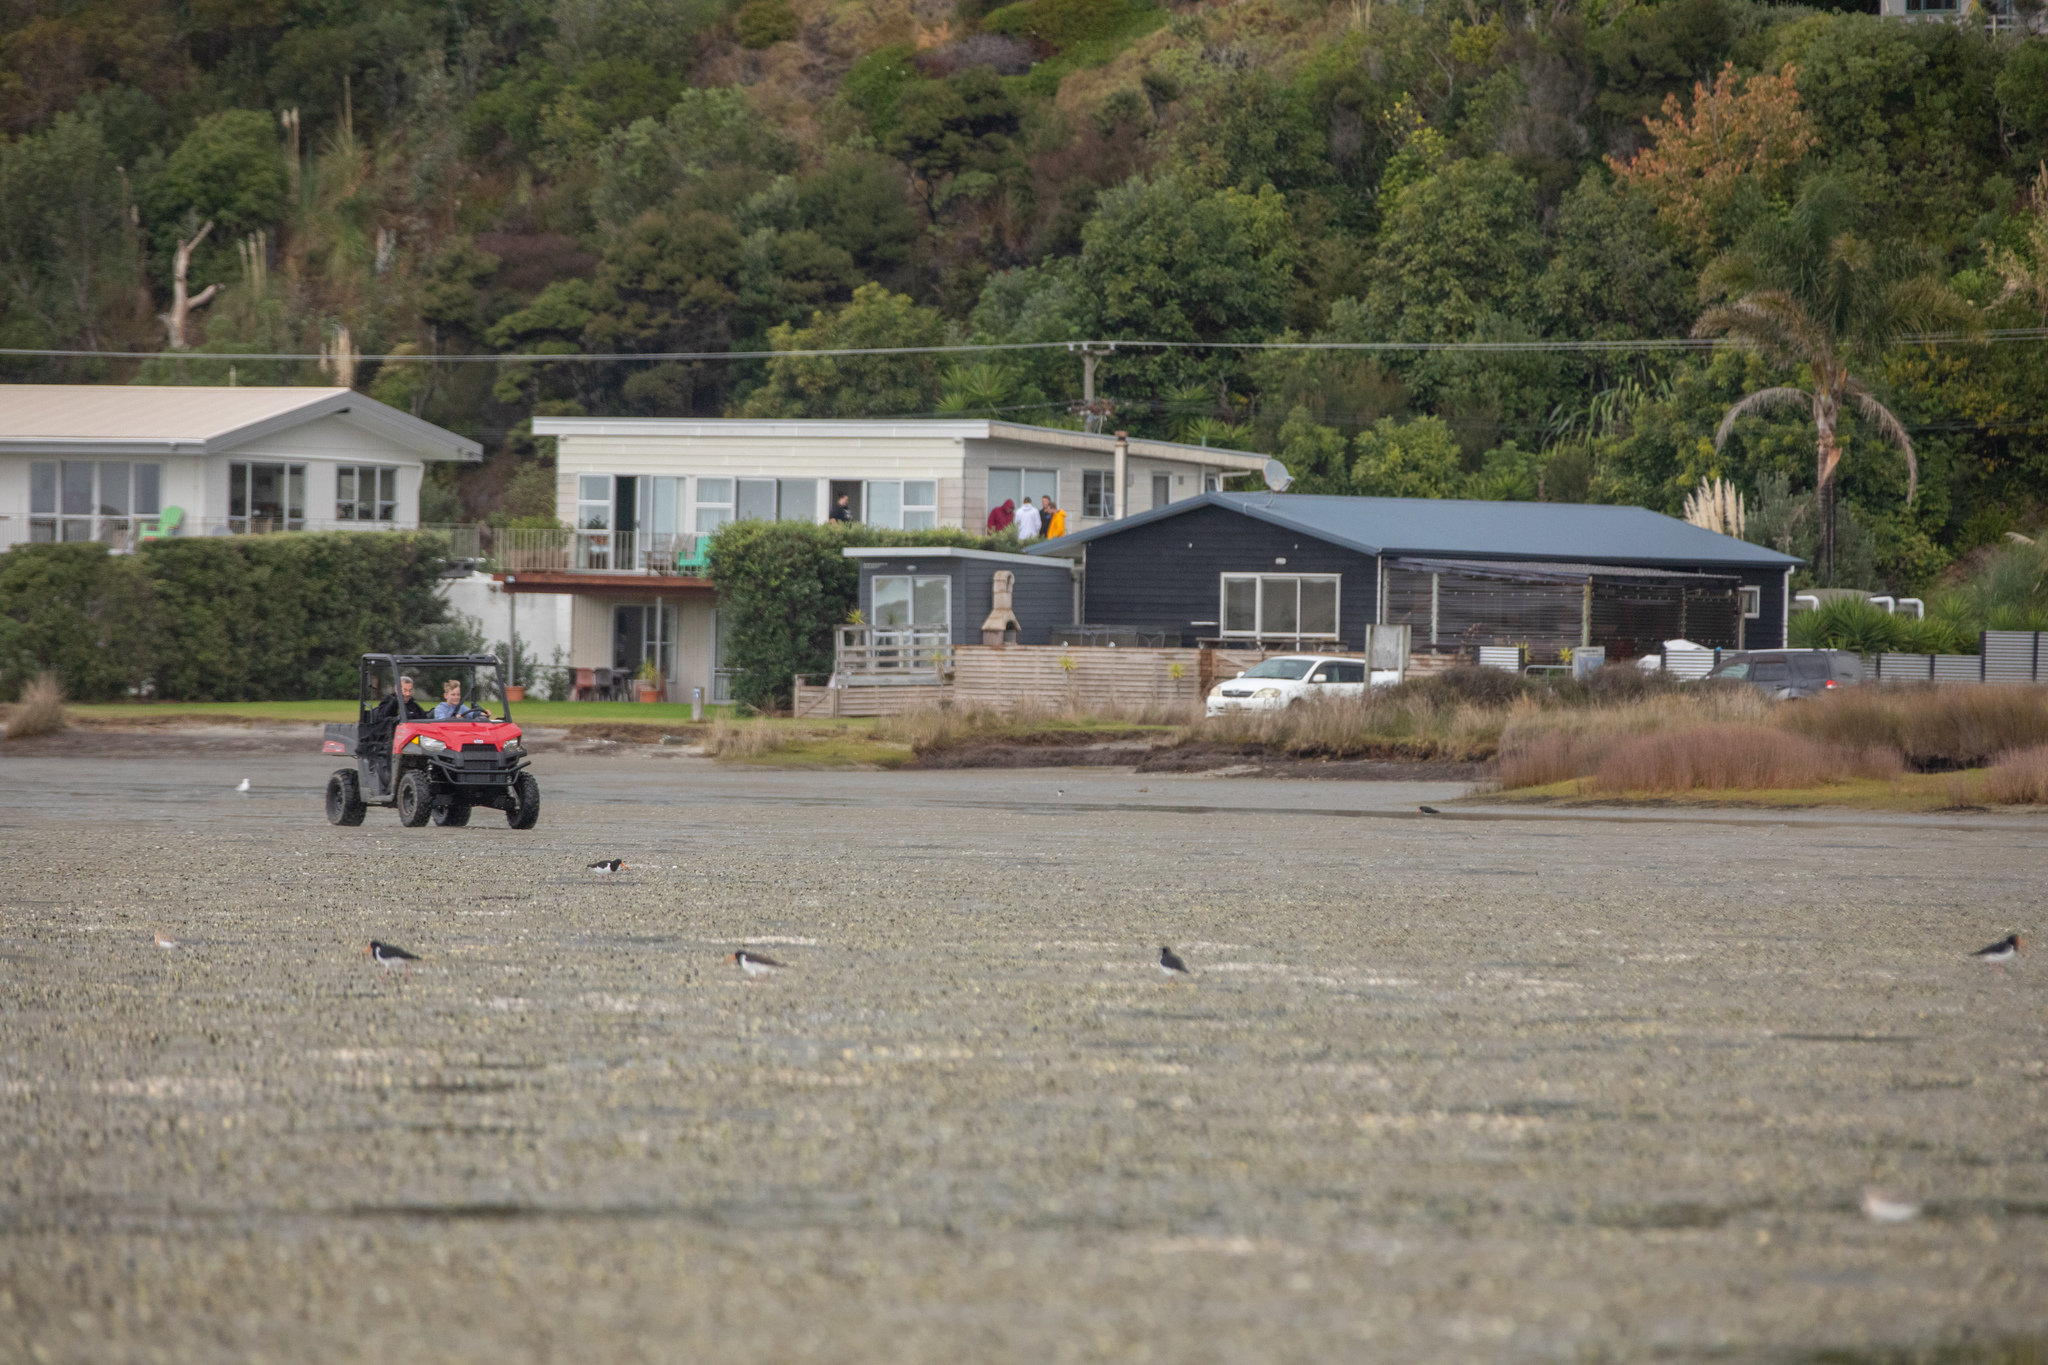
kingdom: Animalia
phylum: Chordata
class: Aves
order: Charadriiformes
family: Haematopodidae
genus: Haematopus
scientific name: Haematopus finschi
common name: South island oystercatcher
